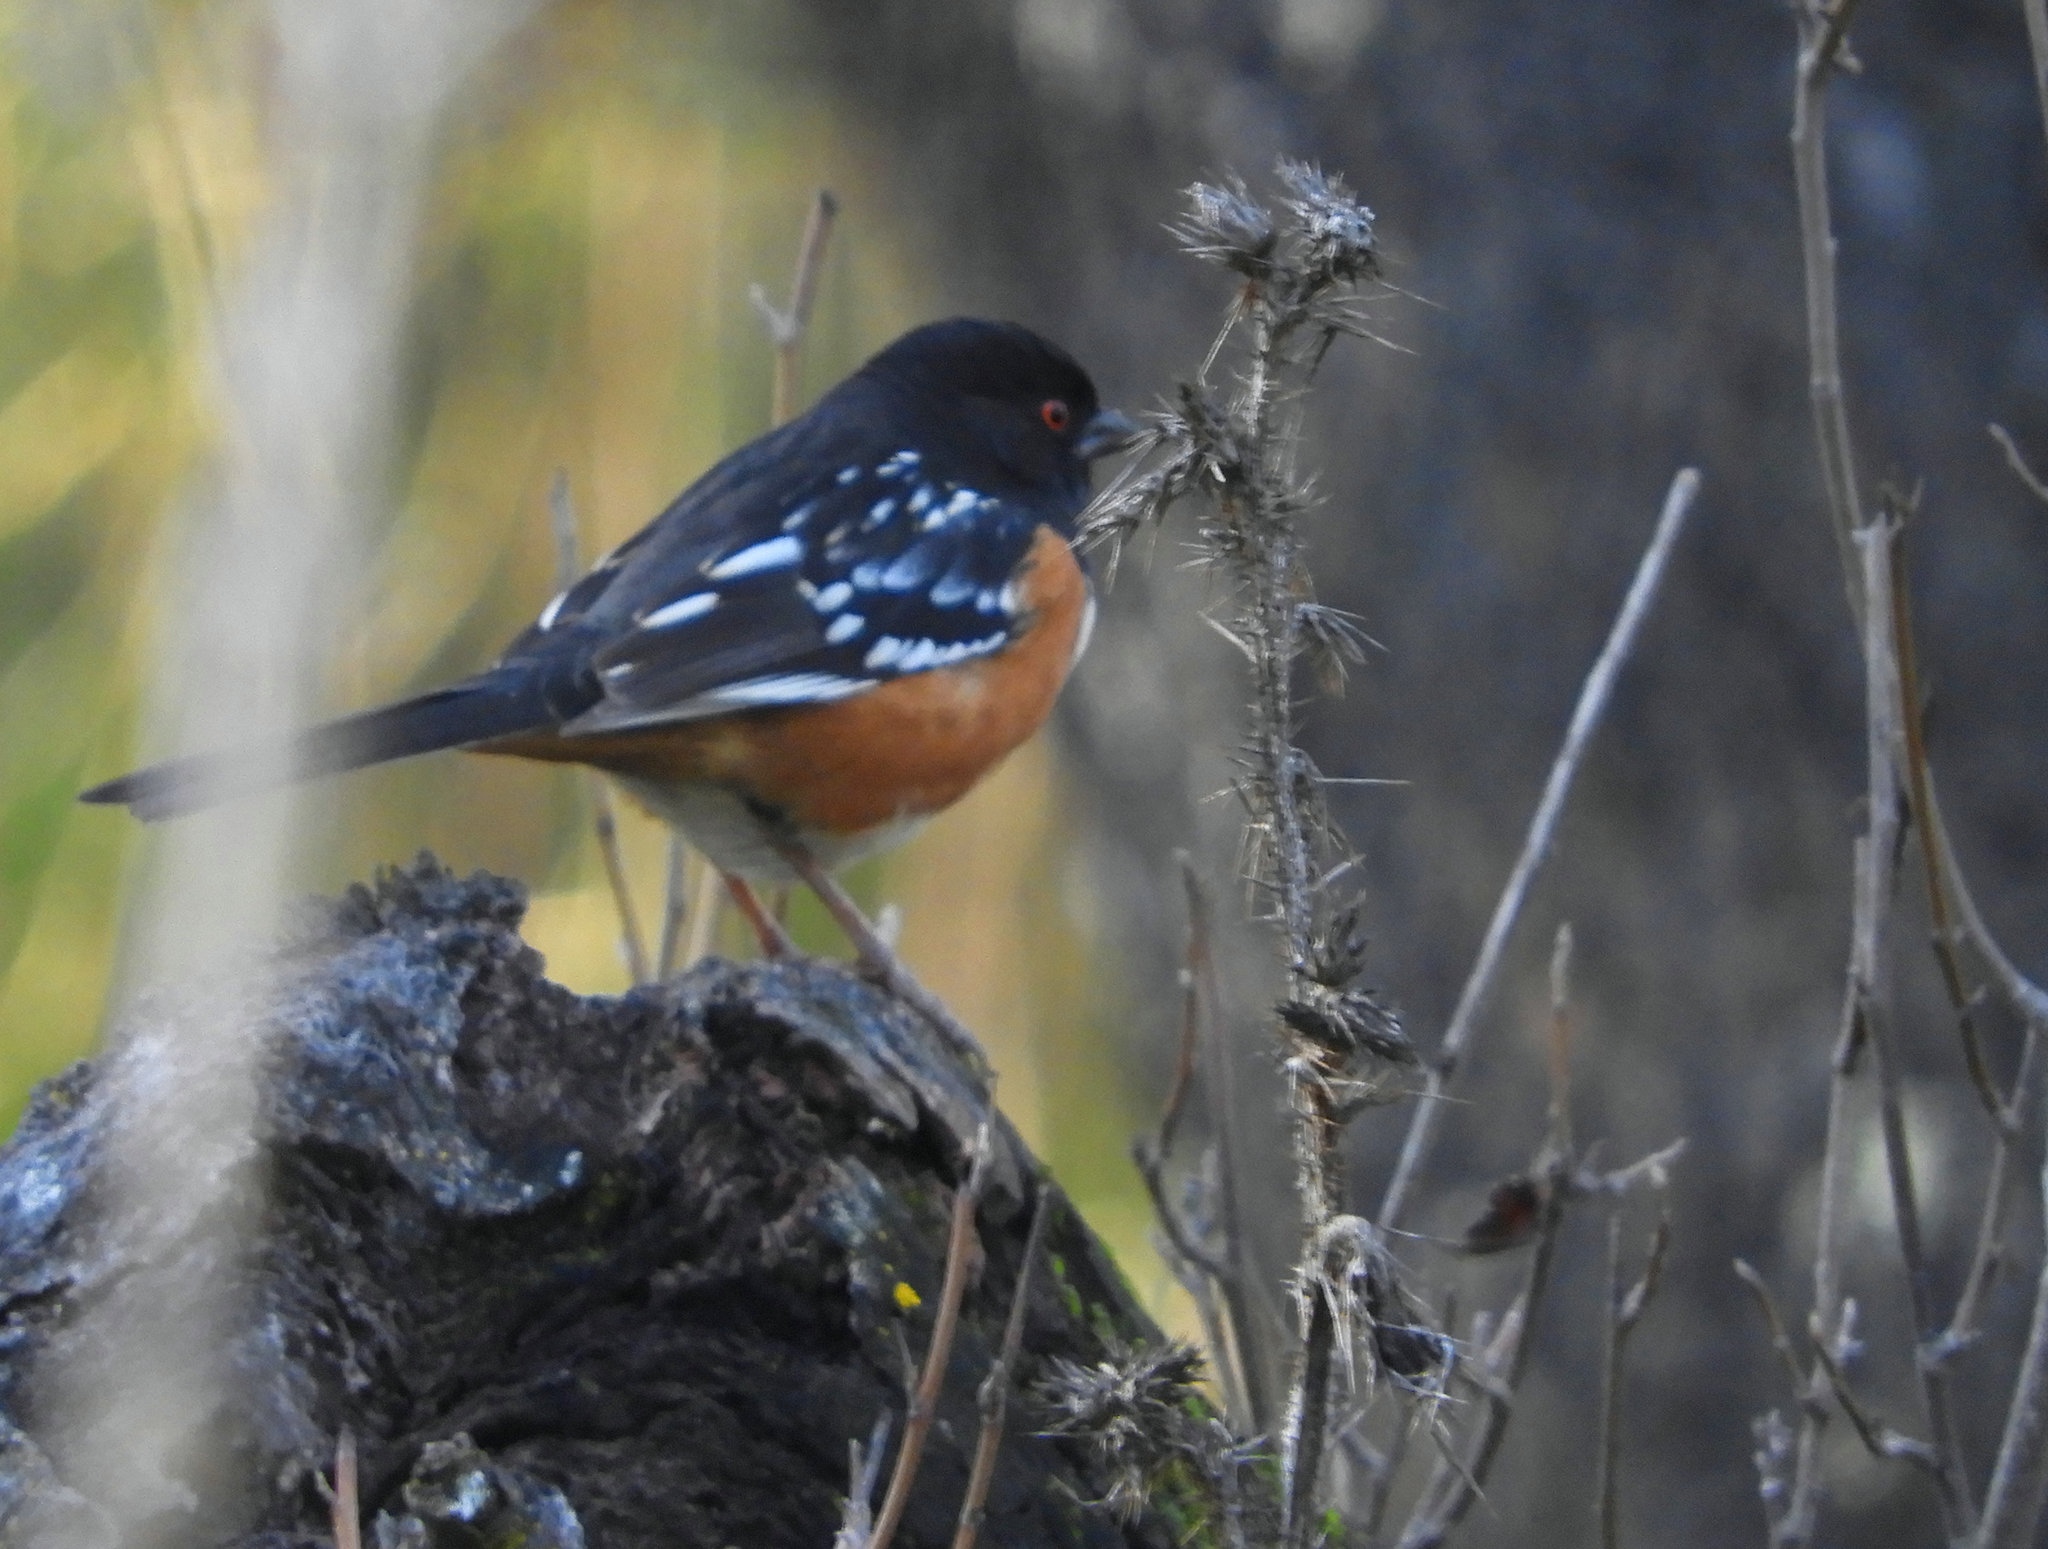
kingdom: Animalia
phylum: Chordata
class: Aves
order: Passeriformes
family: Passerellidae
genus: Pipilo
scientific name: Pipilo maculatus
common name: Spotted towhee
